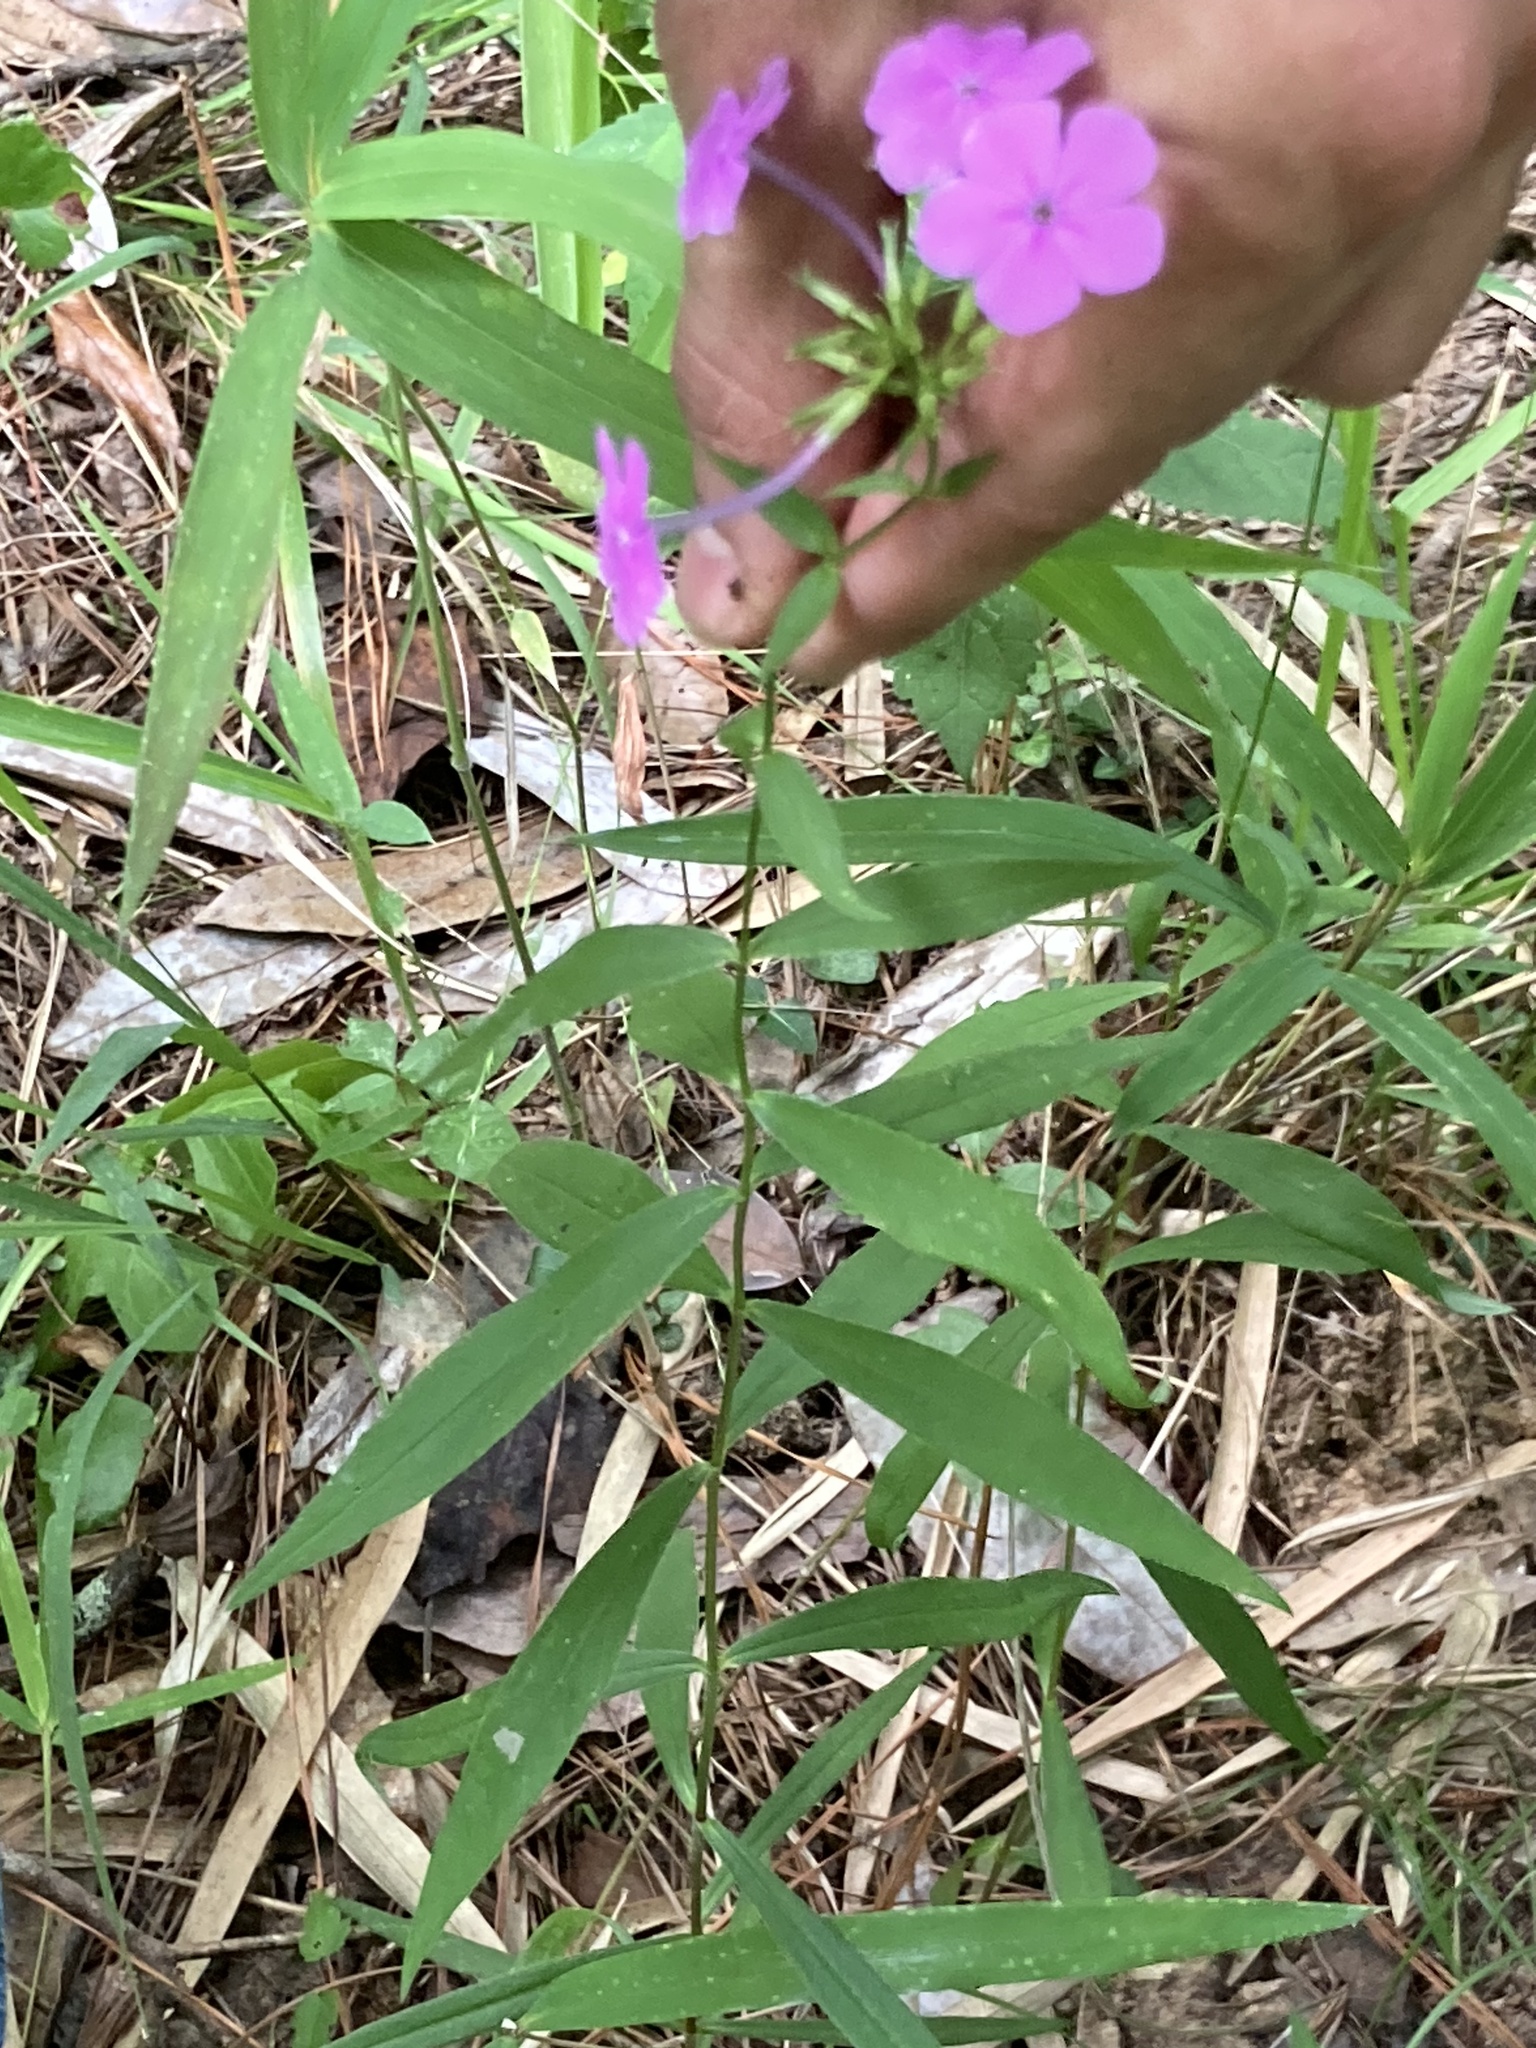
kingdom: Plantae
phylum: Tracheophyta
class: Magnoliopsida
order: Ericales
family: Polemoniaceae
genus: Phlox
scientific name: Phlox carolina
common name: Thick-leaf phlox
